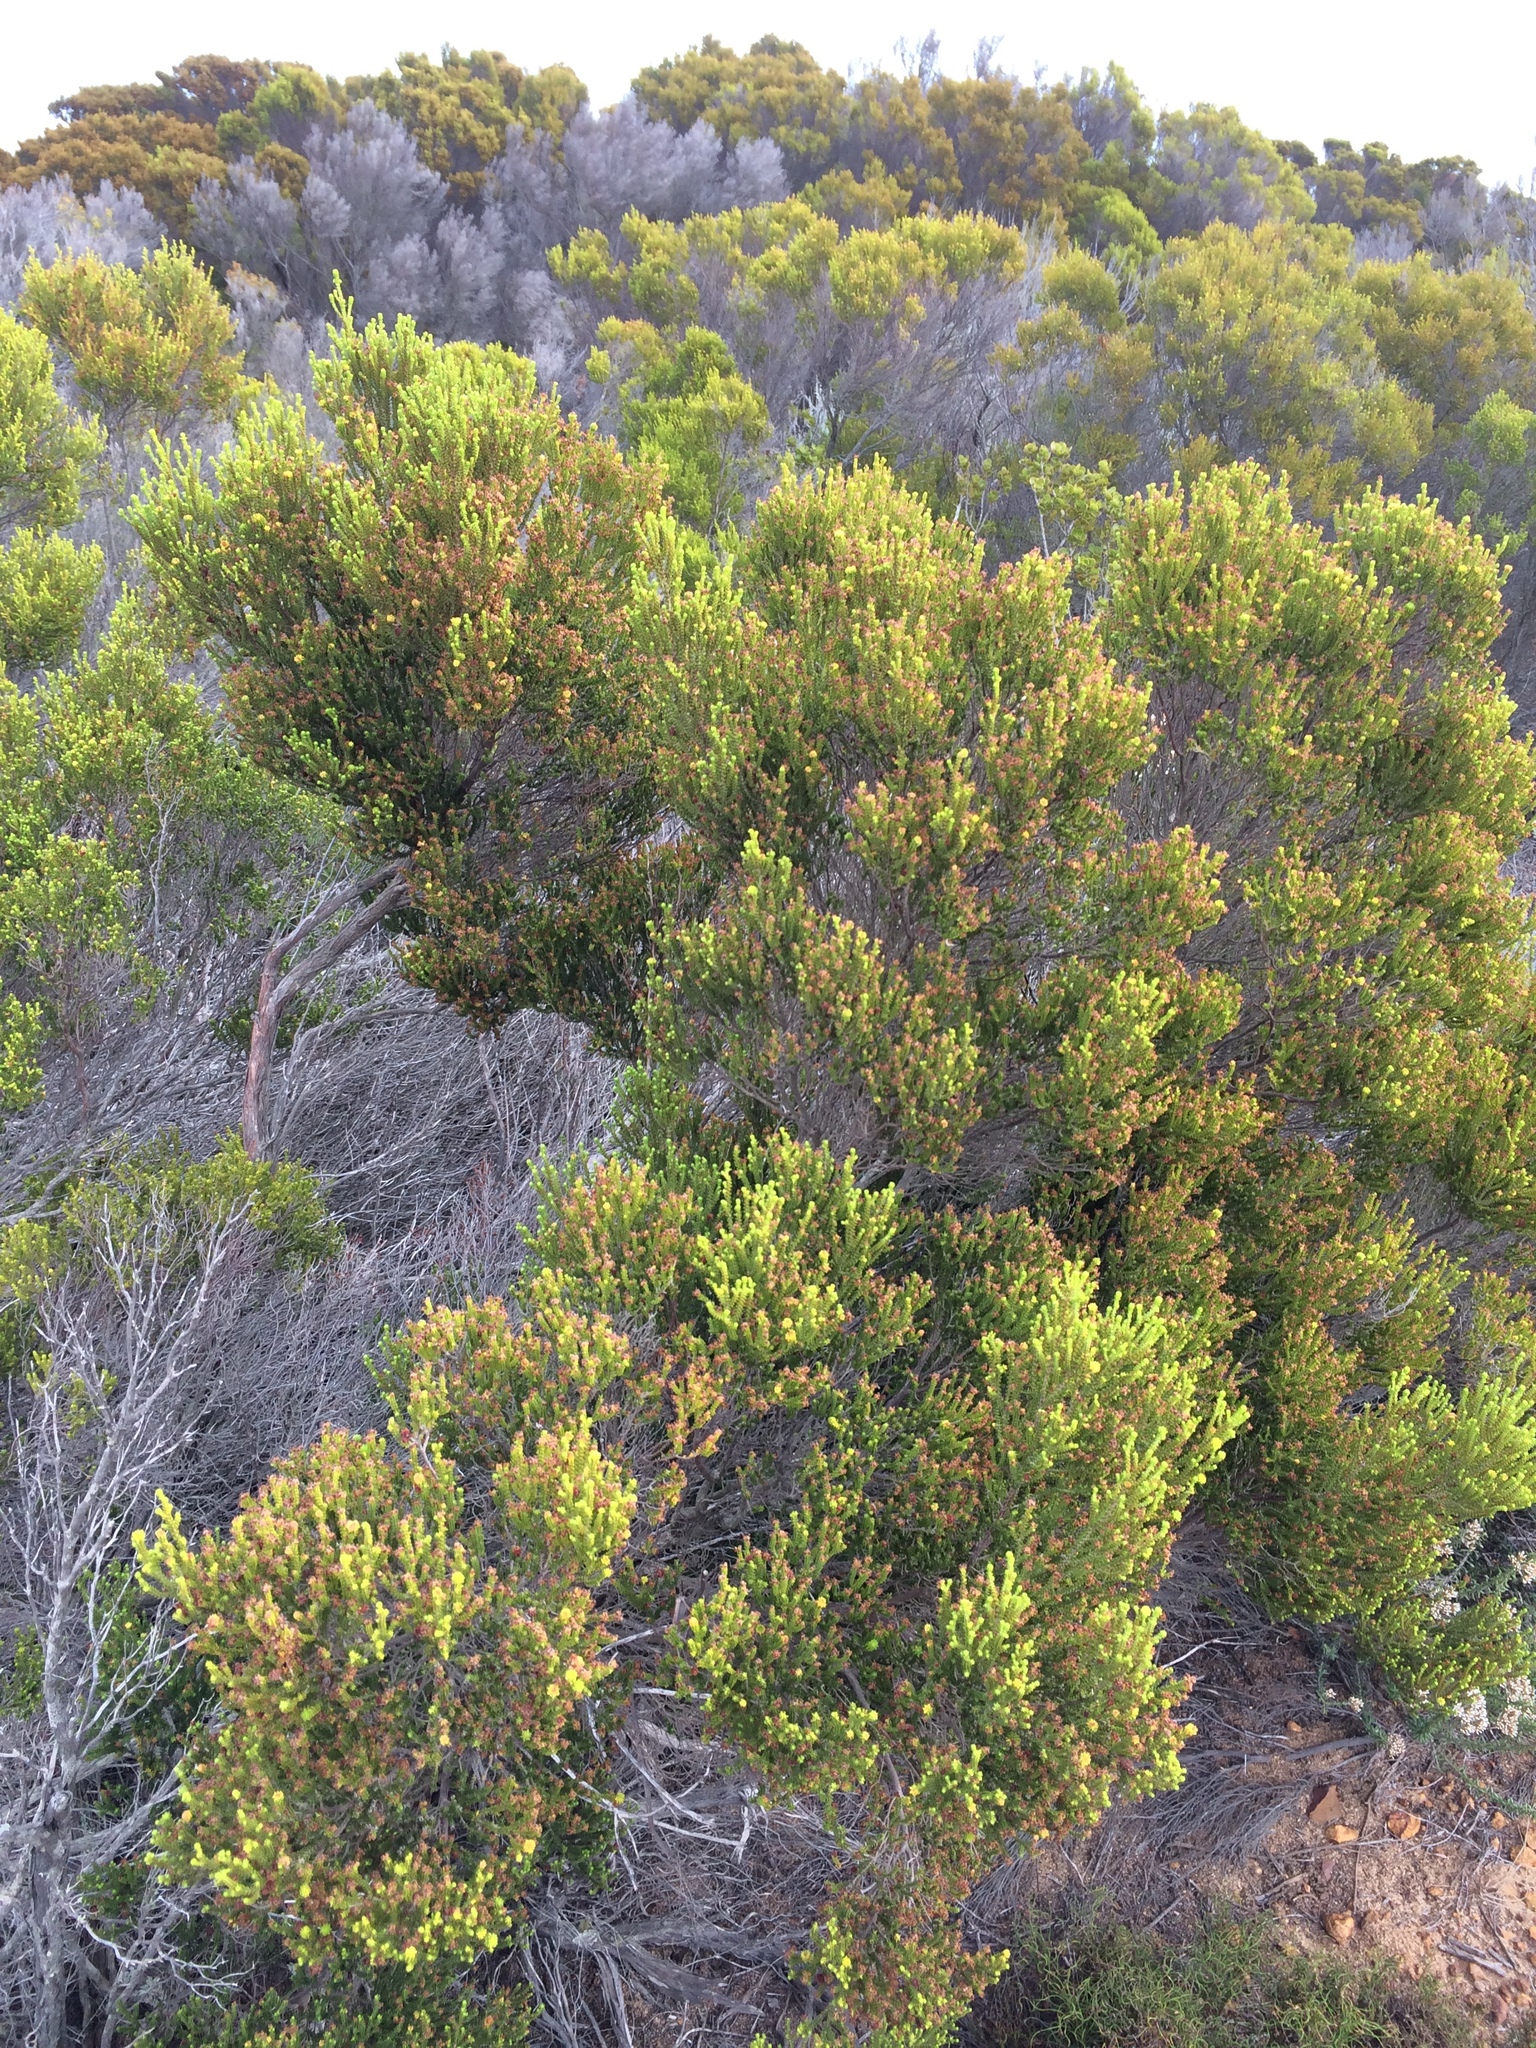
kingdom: Plantae
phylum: Tracheophyta
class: Magnoliopsida
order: Ericales
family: Ericaceae
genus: Erica
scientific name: Erica tristis
